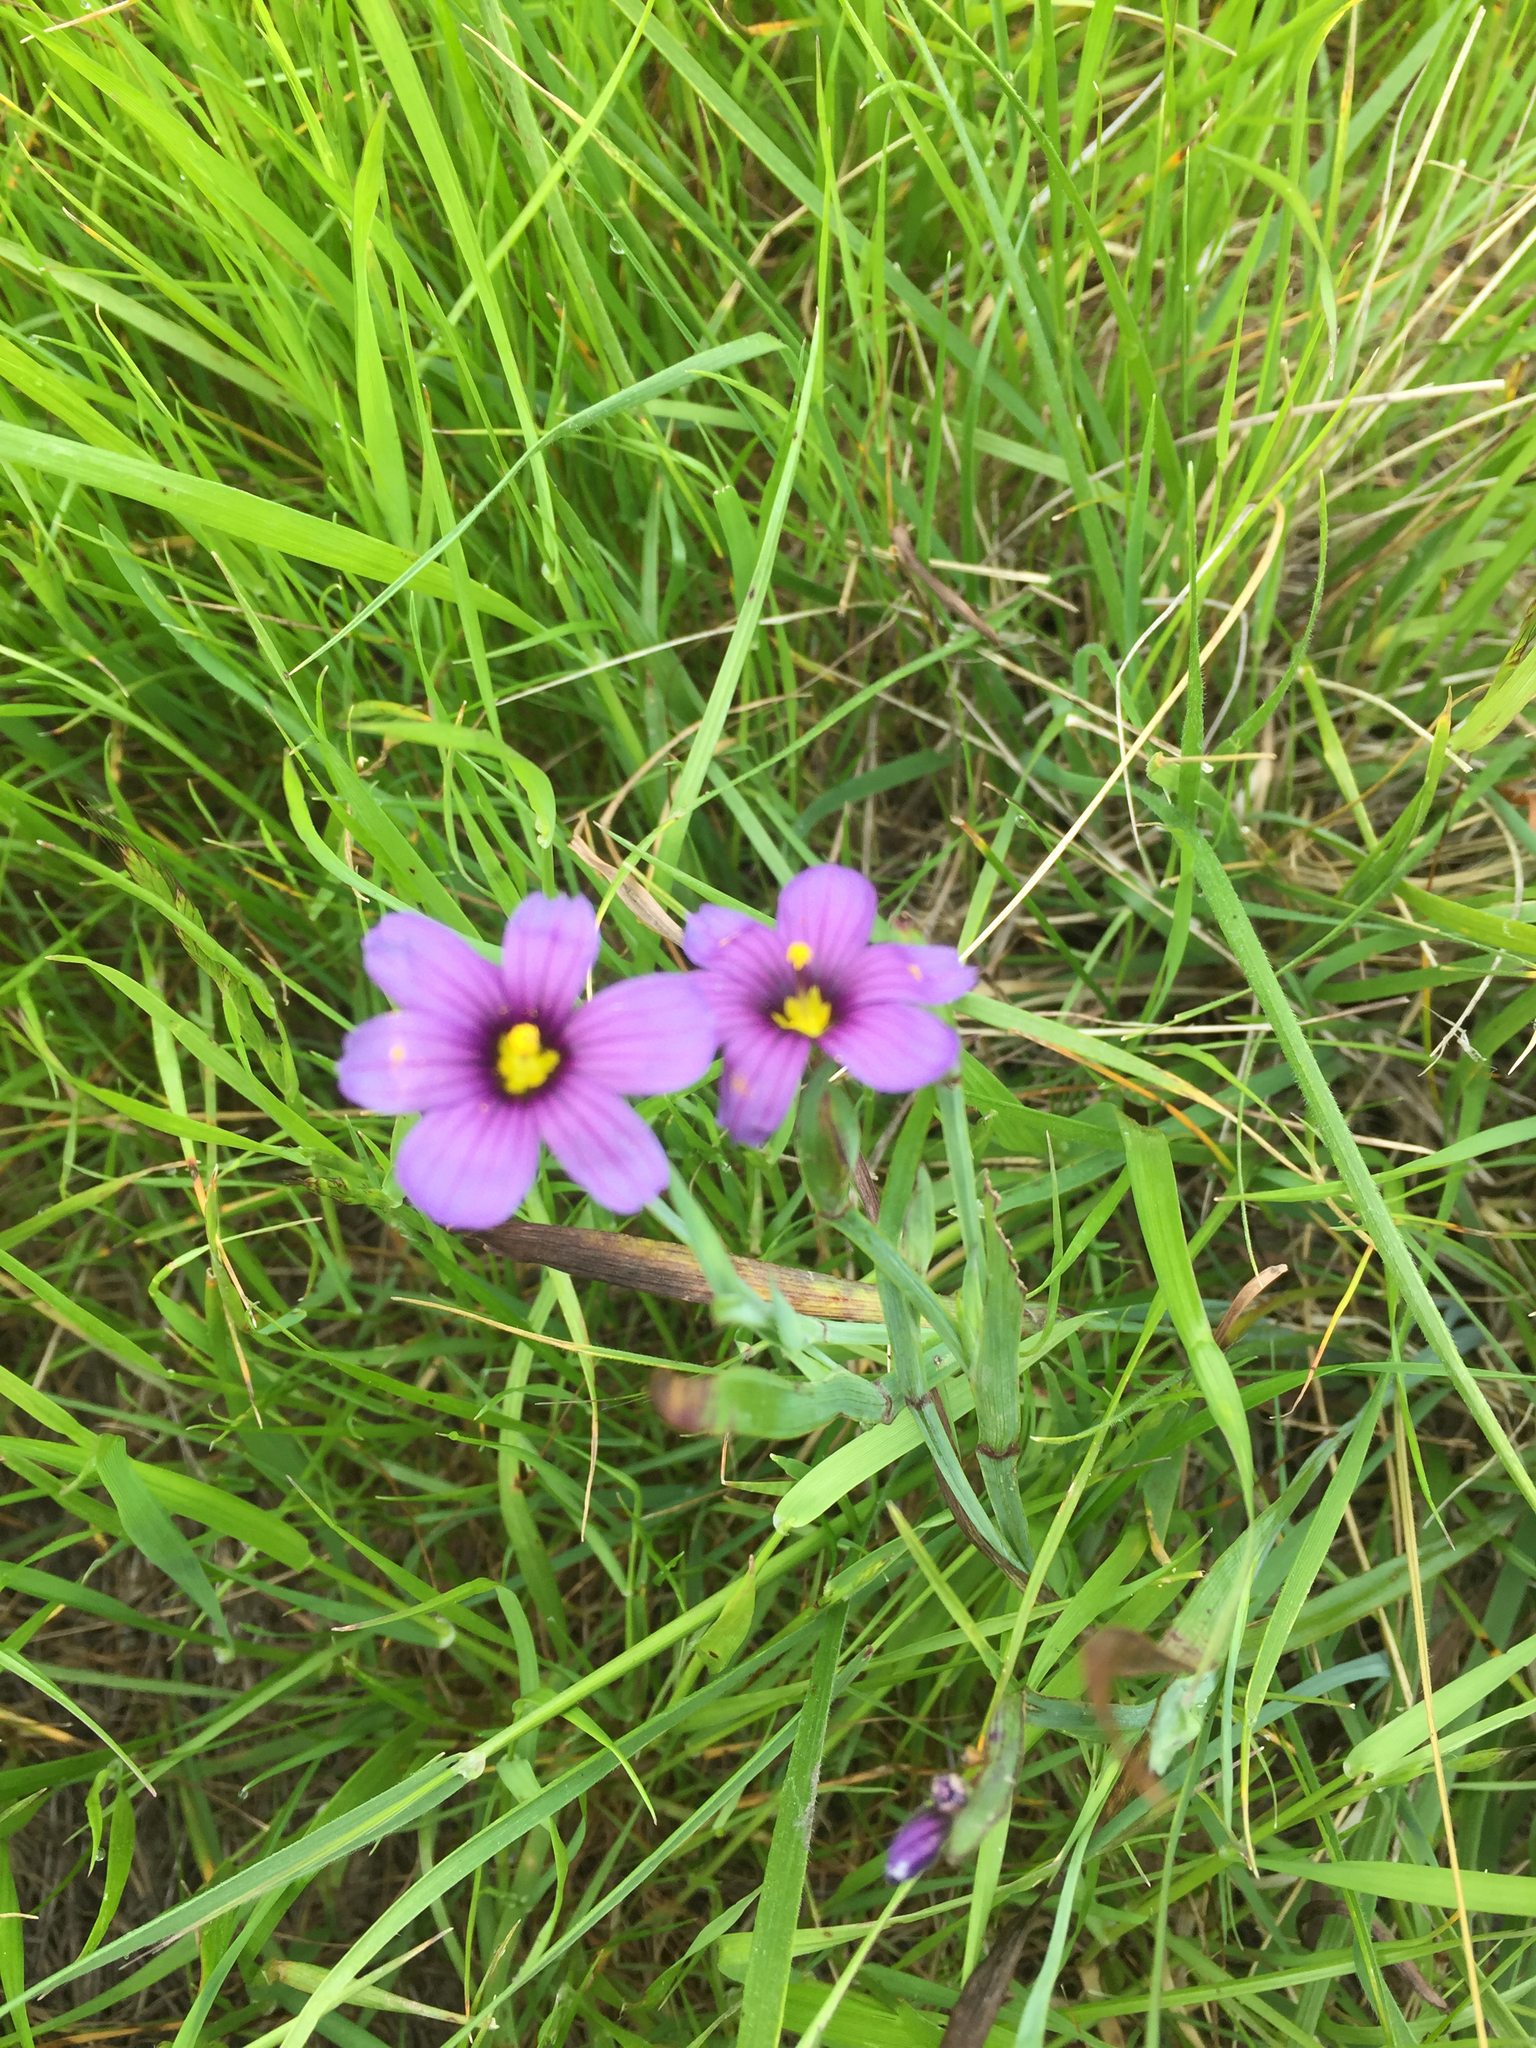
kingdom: Plantae
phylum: Tracheophyta
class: Liliopsida
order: Asparagales
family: Iridaceae
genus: Sisyrinchium
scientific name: Sisyrinchium bellum
